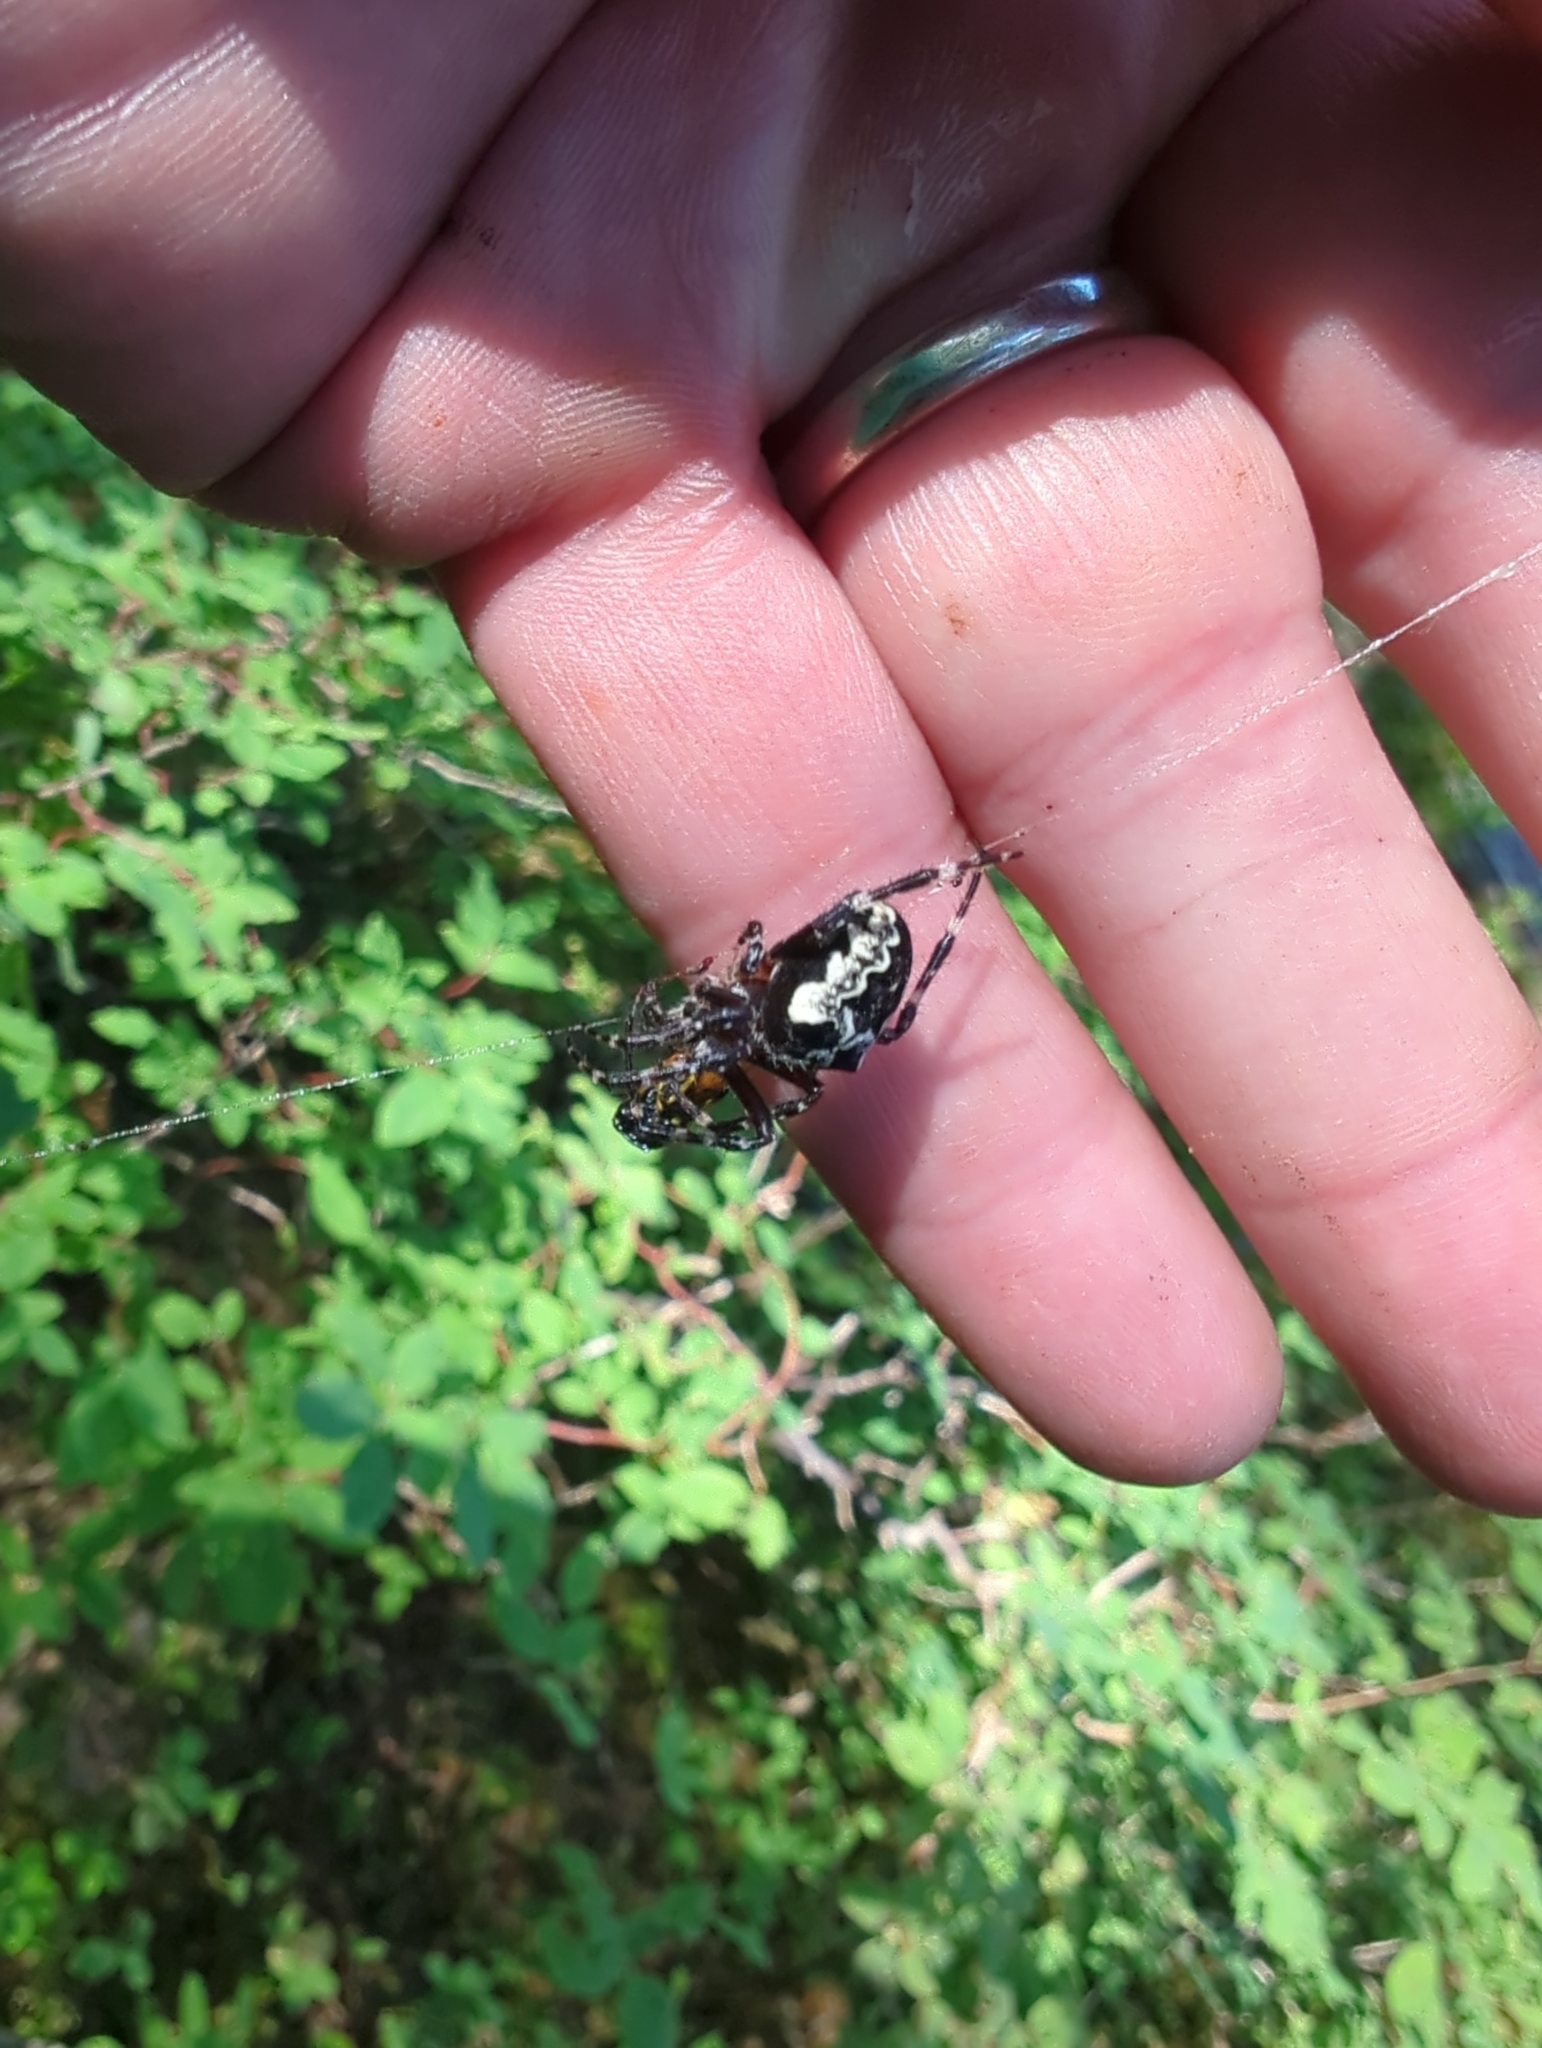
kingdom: Animalia
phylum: Arthropoda
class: Arachnida
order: Araneae
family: Araneidae
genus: Araneus
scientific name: Araneus nordmanni
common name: Nordmann's orbweaver
